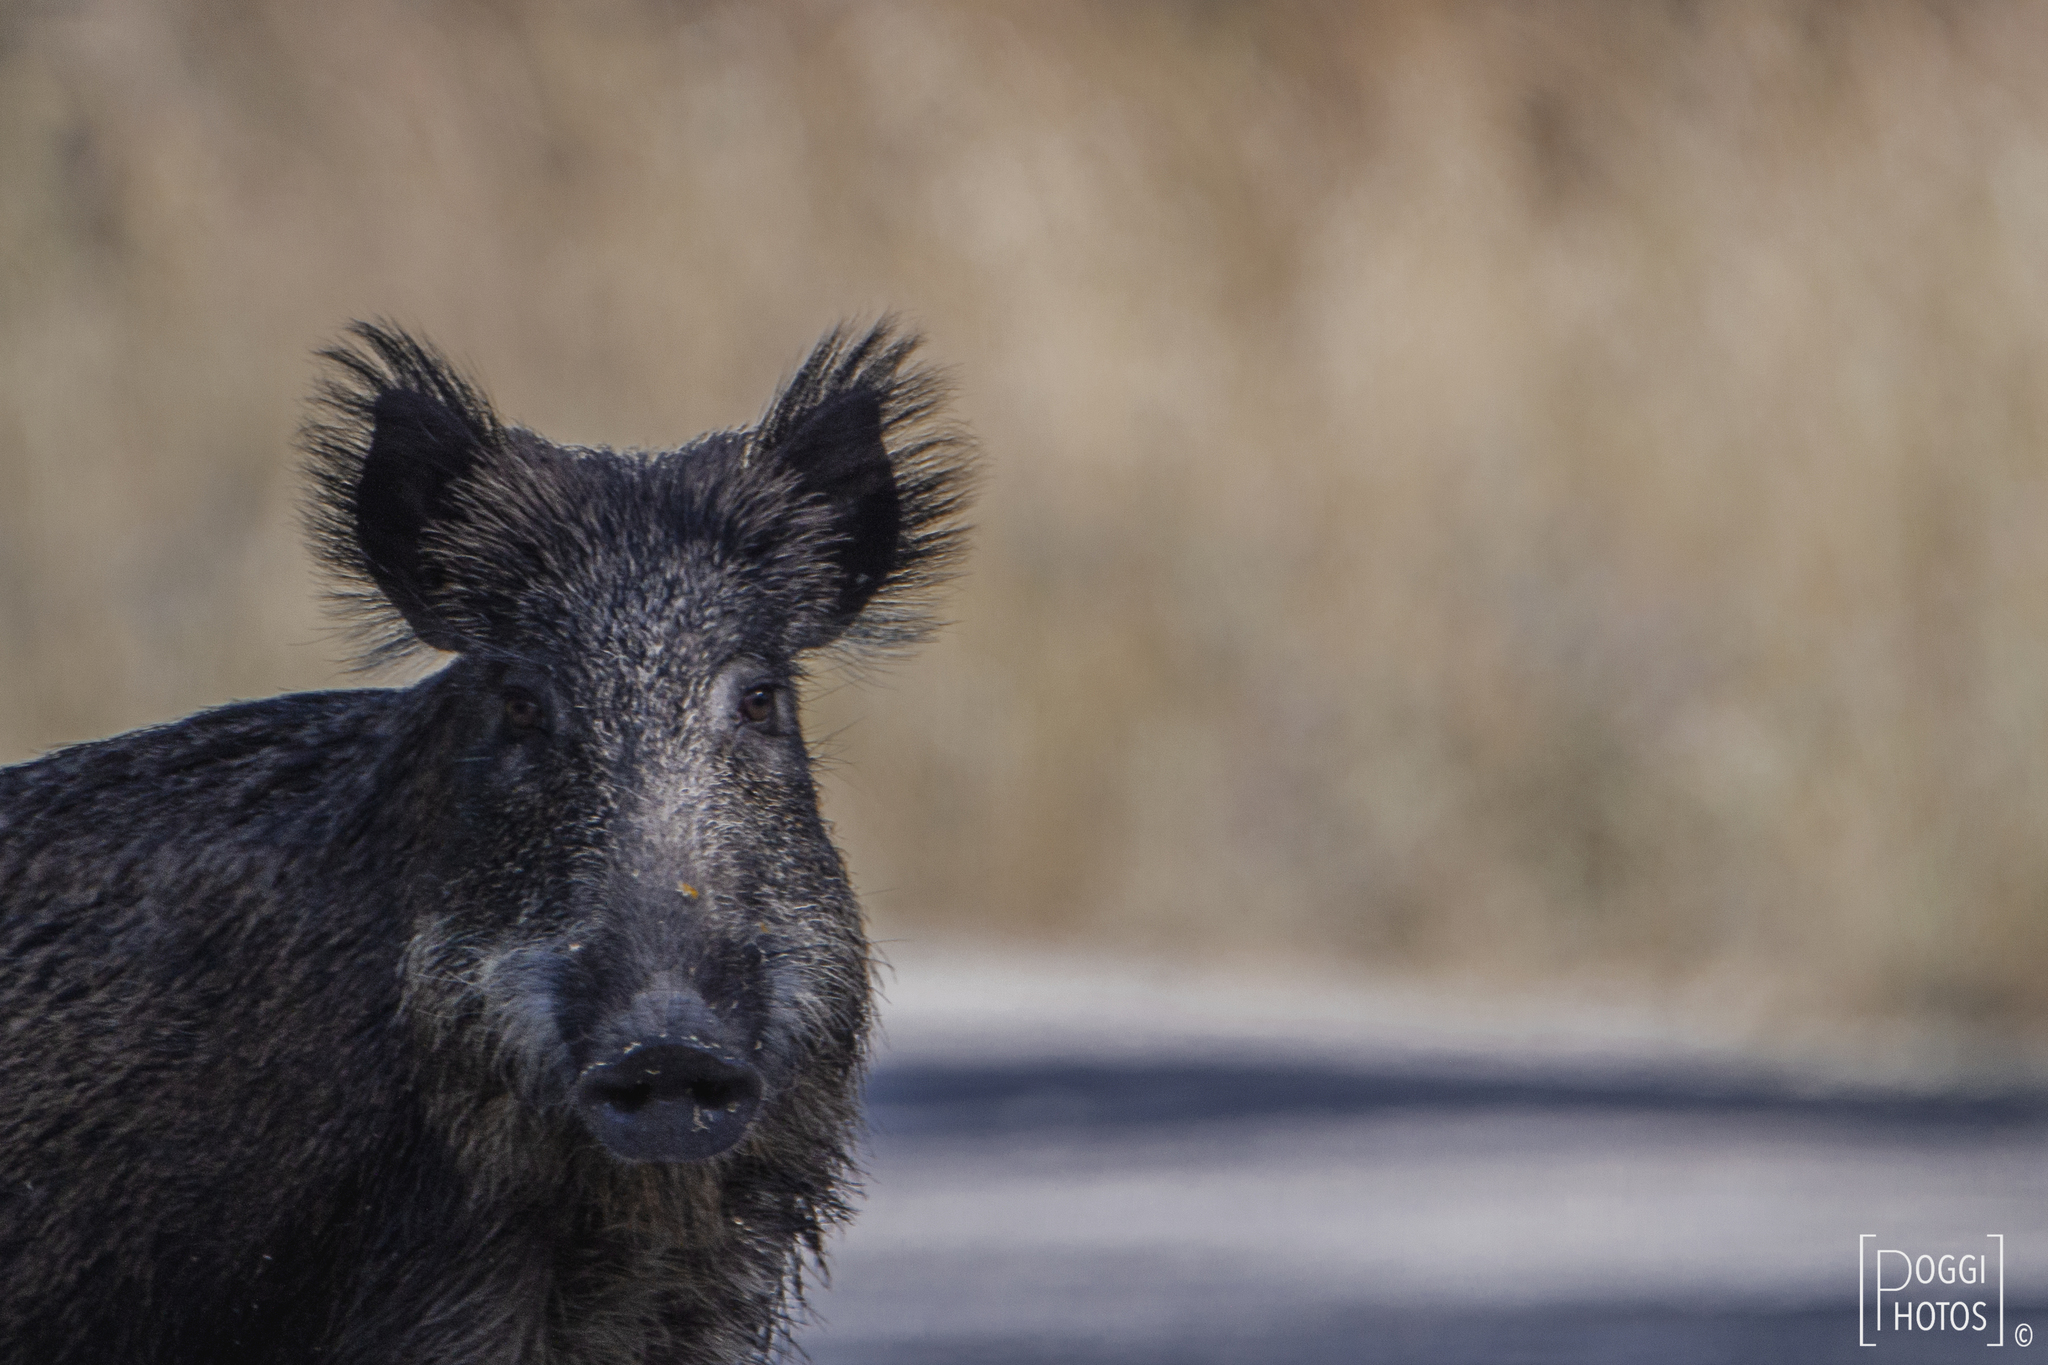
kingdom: Animalia
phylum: Chordata
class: Mammalia
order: Artiodactyla
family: Suidae
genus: Sus
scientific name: Sus scrofa
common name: Wild boar
